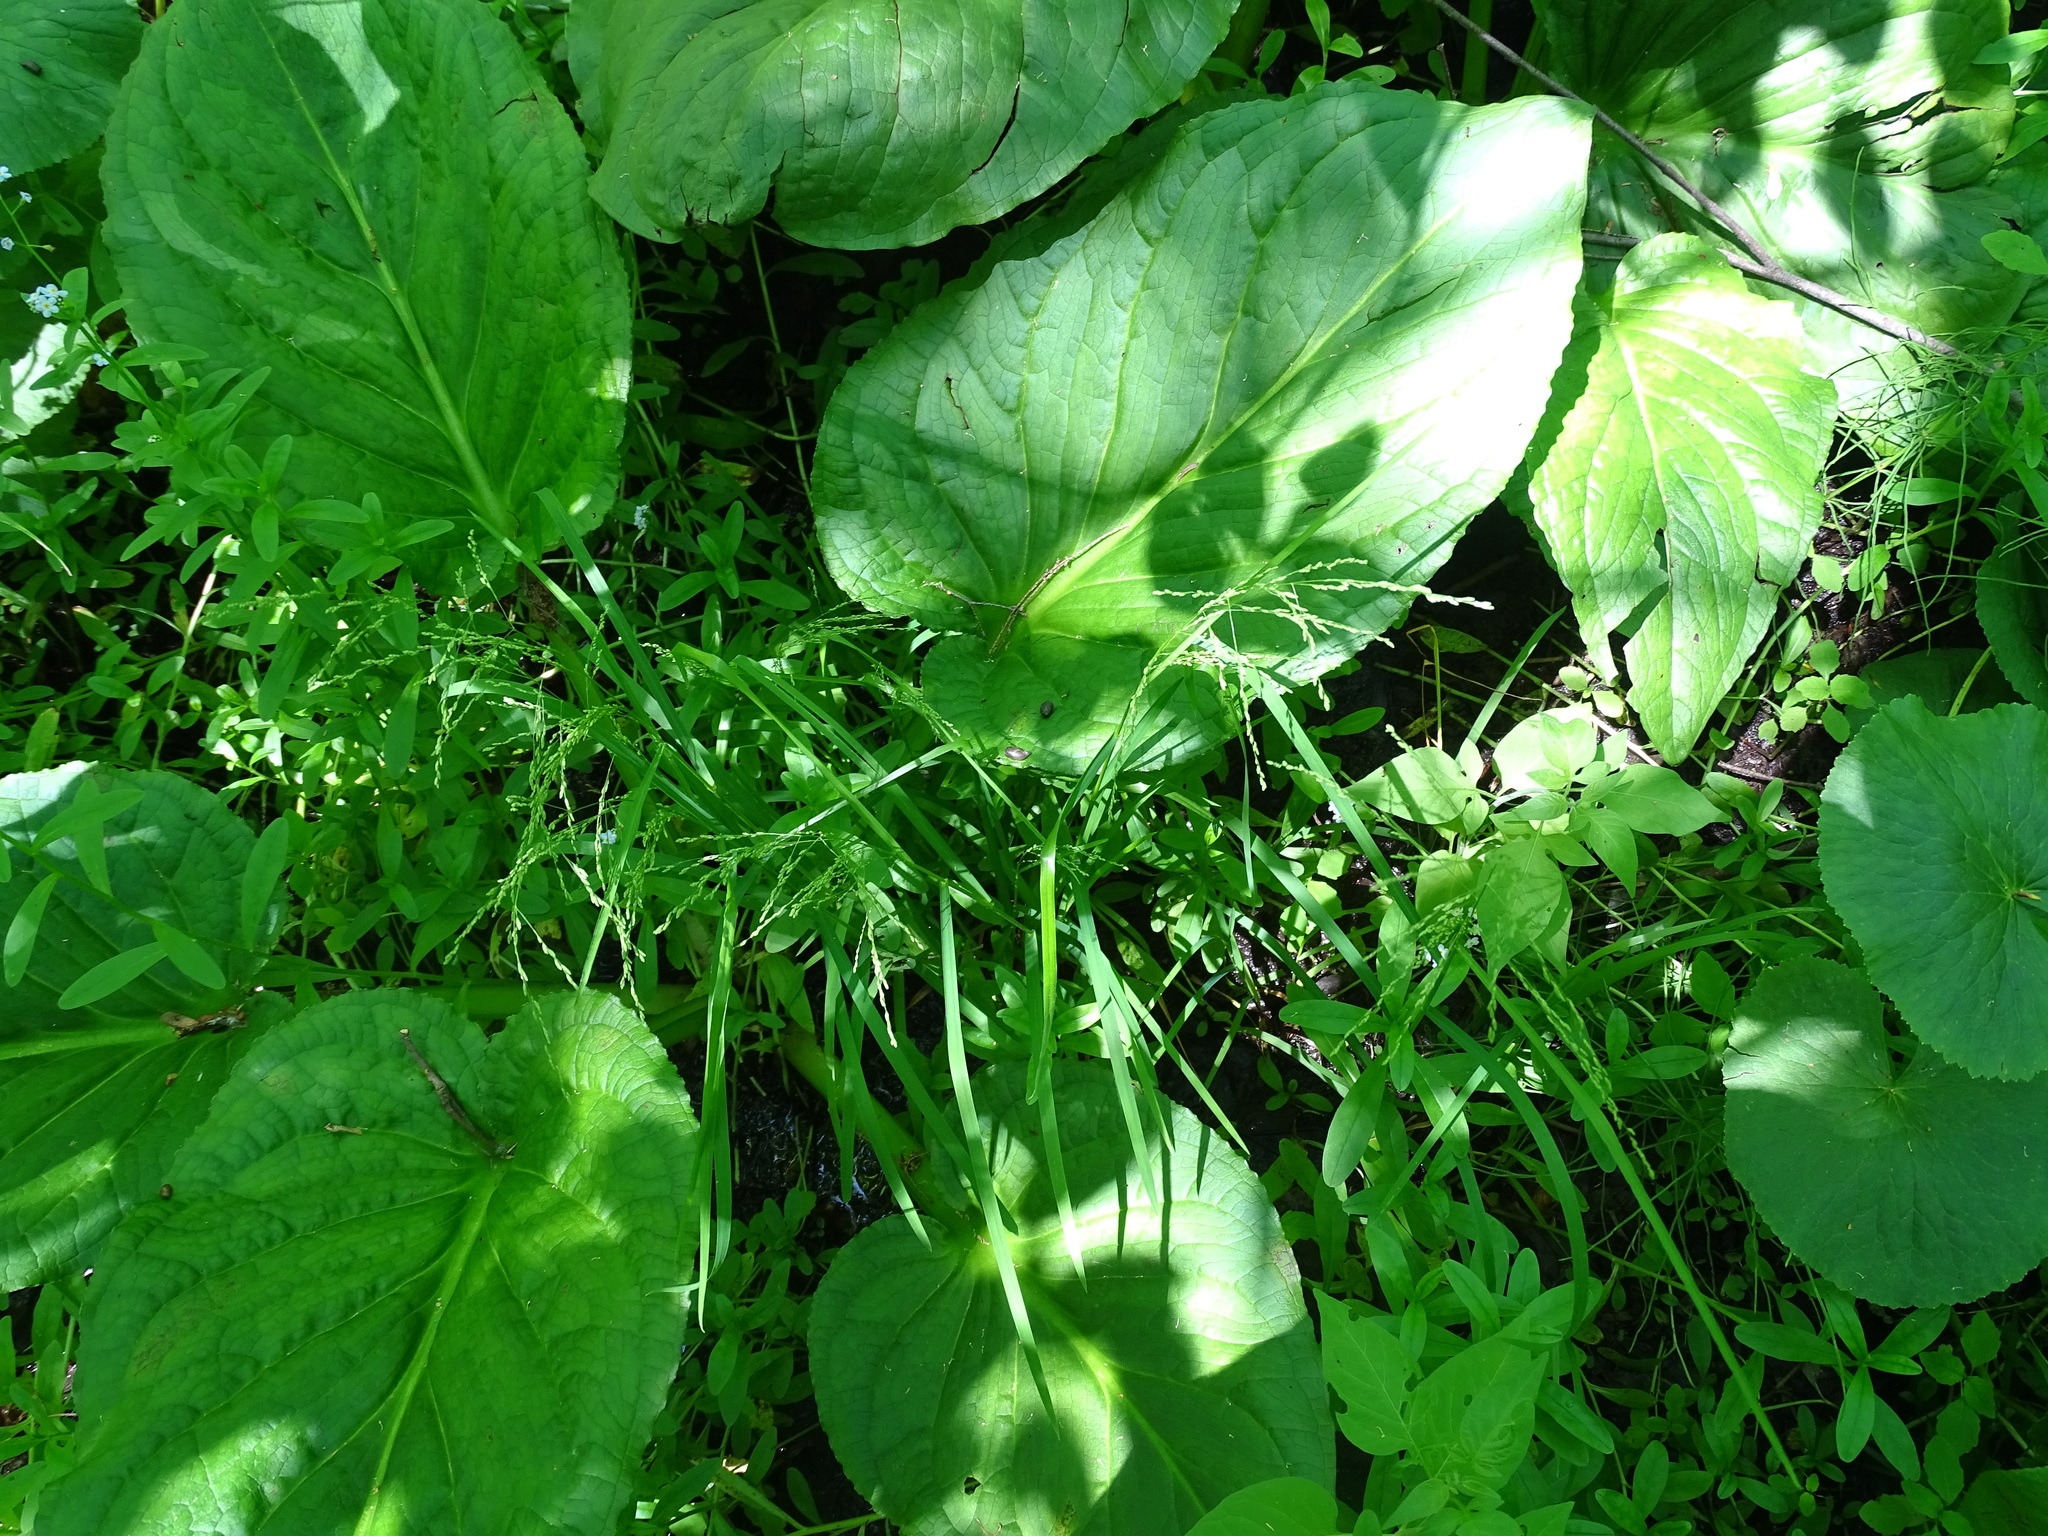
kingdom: Plantae
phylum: Tracheophyta
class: Liliopsida
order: Poales
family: Poaceae
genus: Glyceria
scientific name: Glyceria striata
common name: Fowl manna grass
